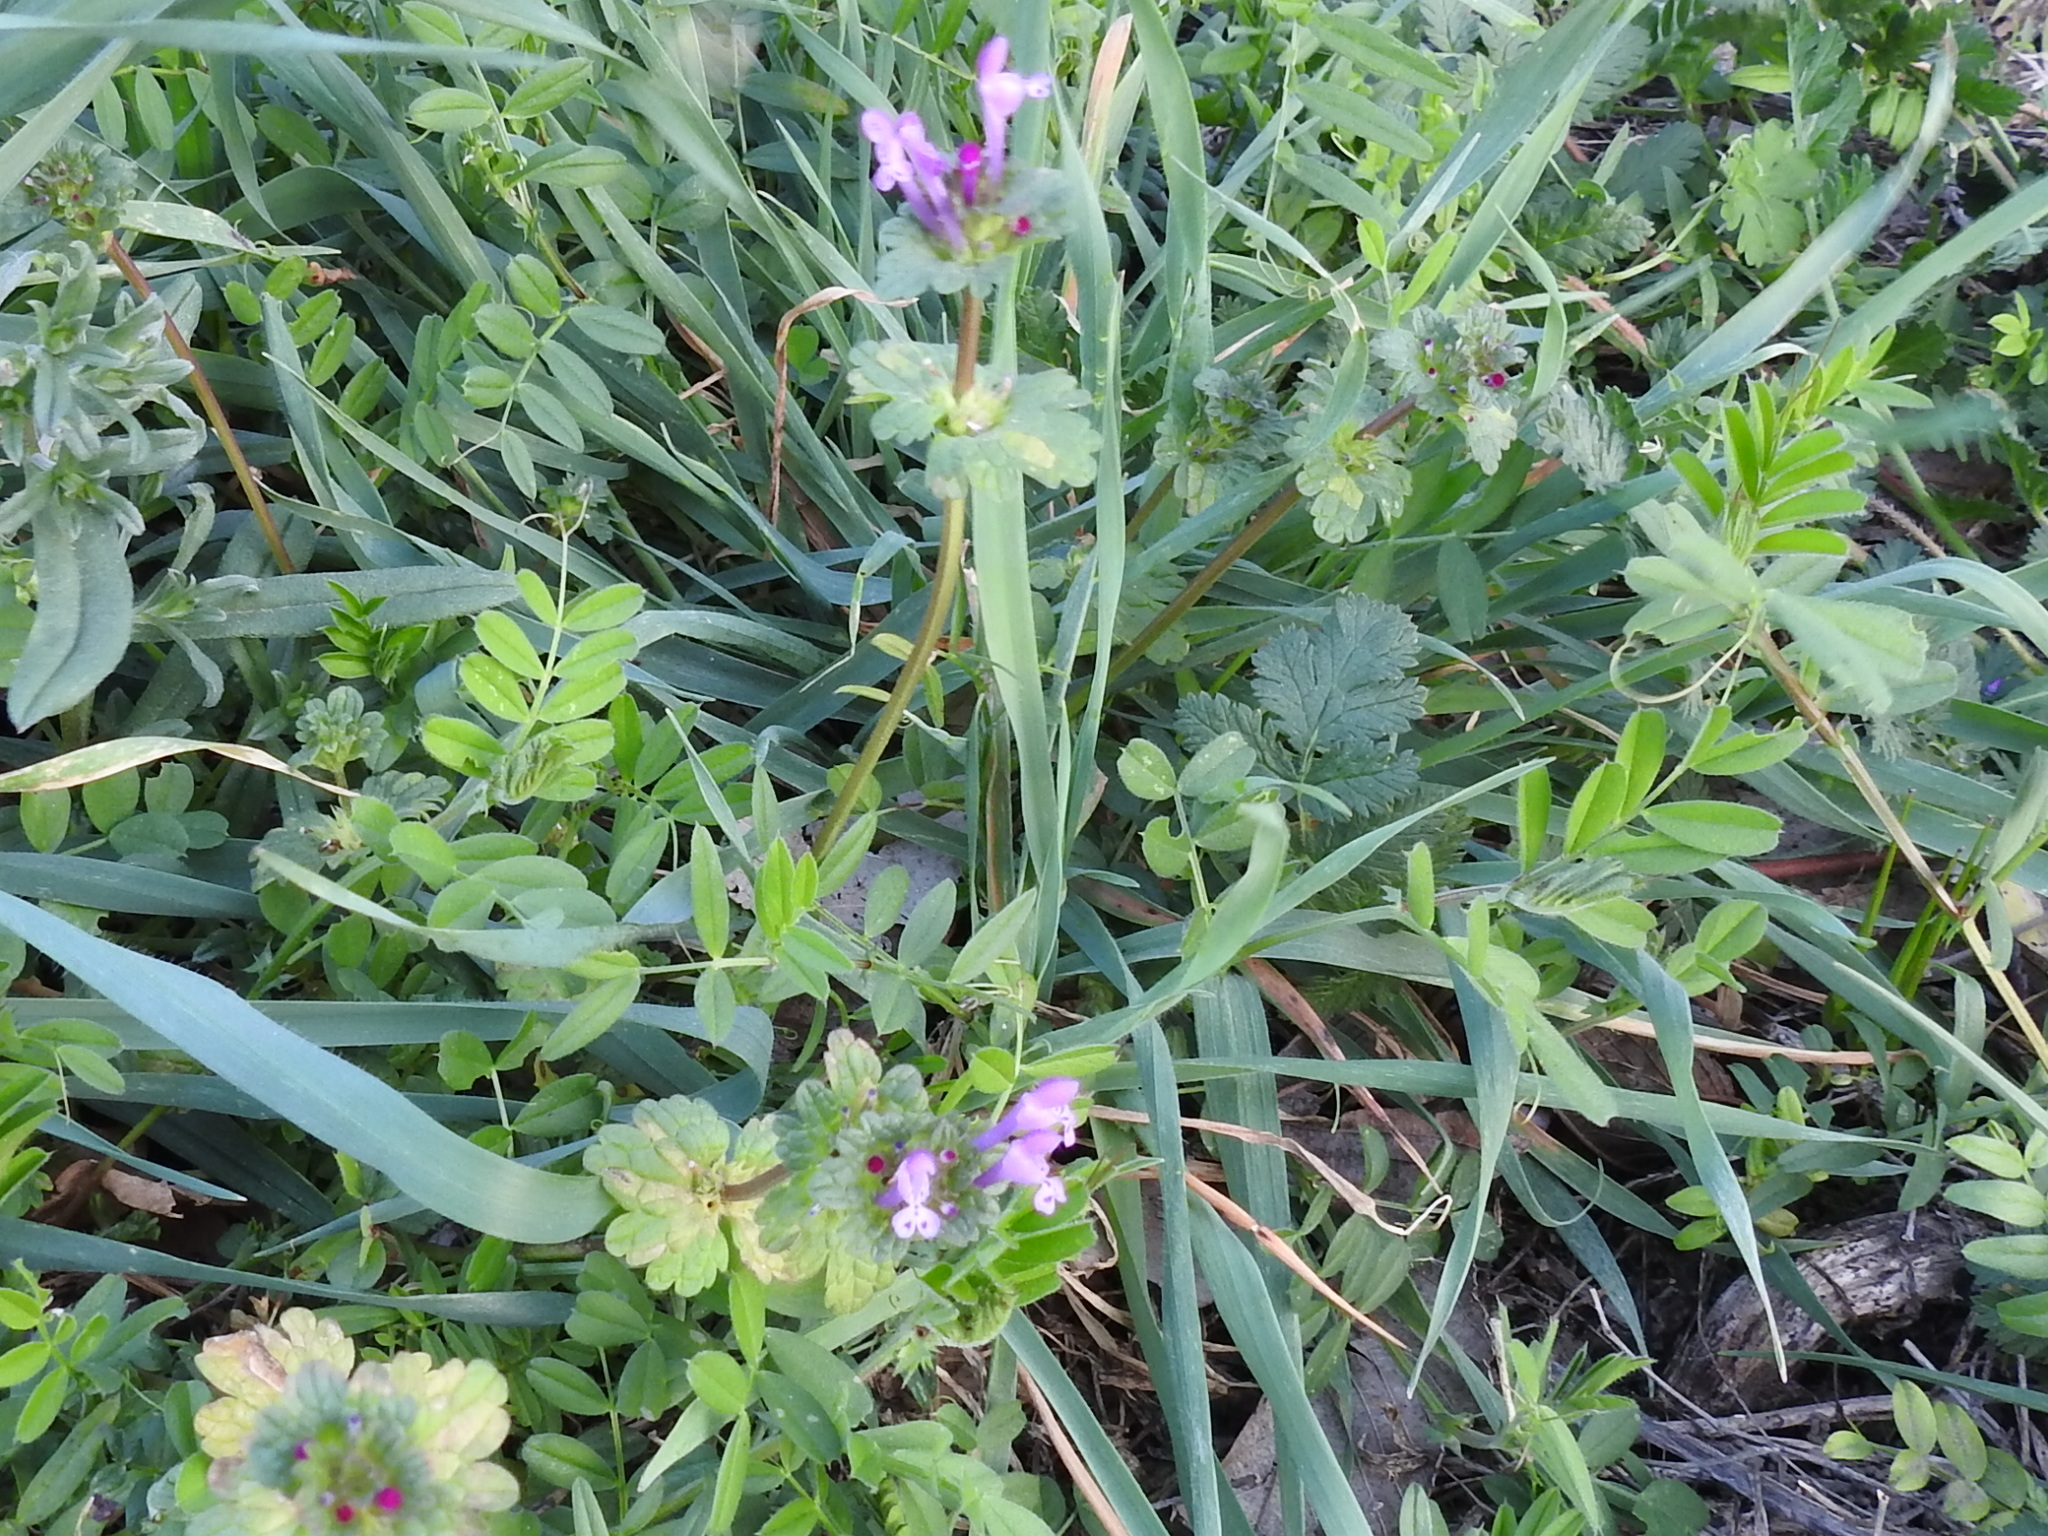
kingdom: Plantae
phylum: Tracheophyta
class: Magnoliopsida
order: Lamiales
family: Lamiaceae
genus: Lamium
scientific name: Lamium amplexicaule
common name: Henbit dead-nettle
